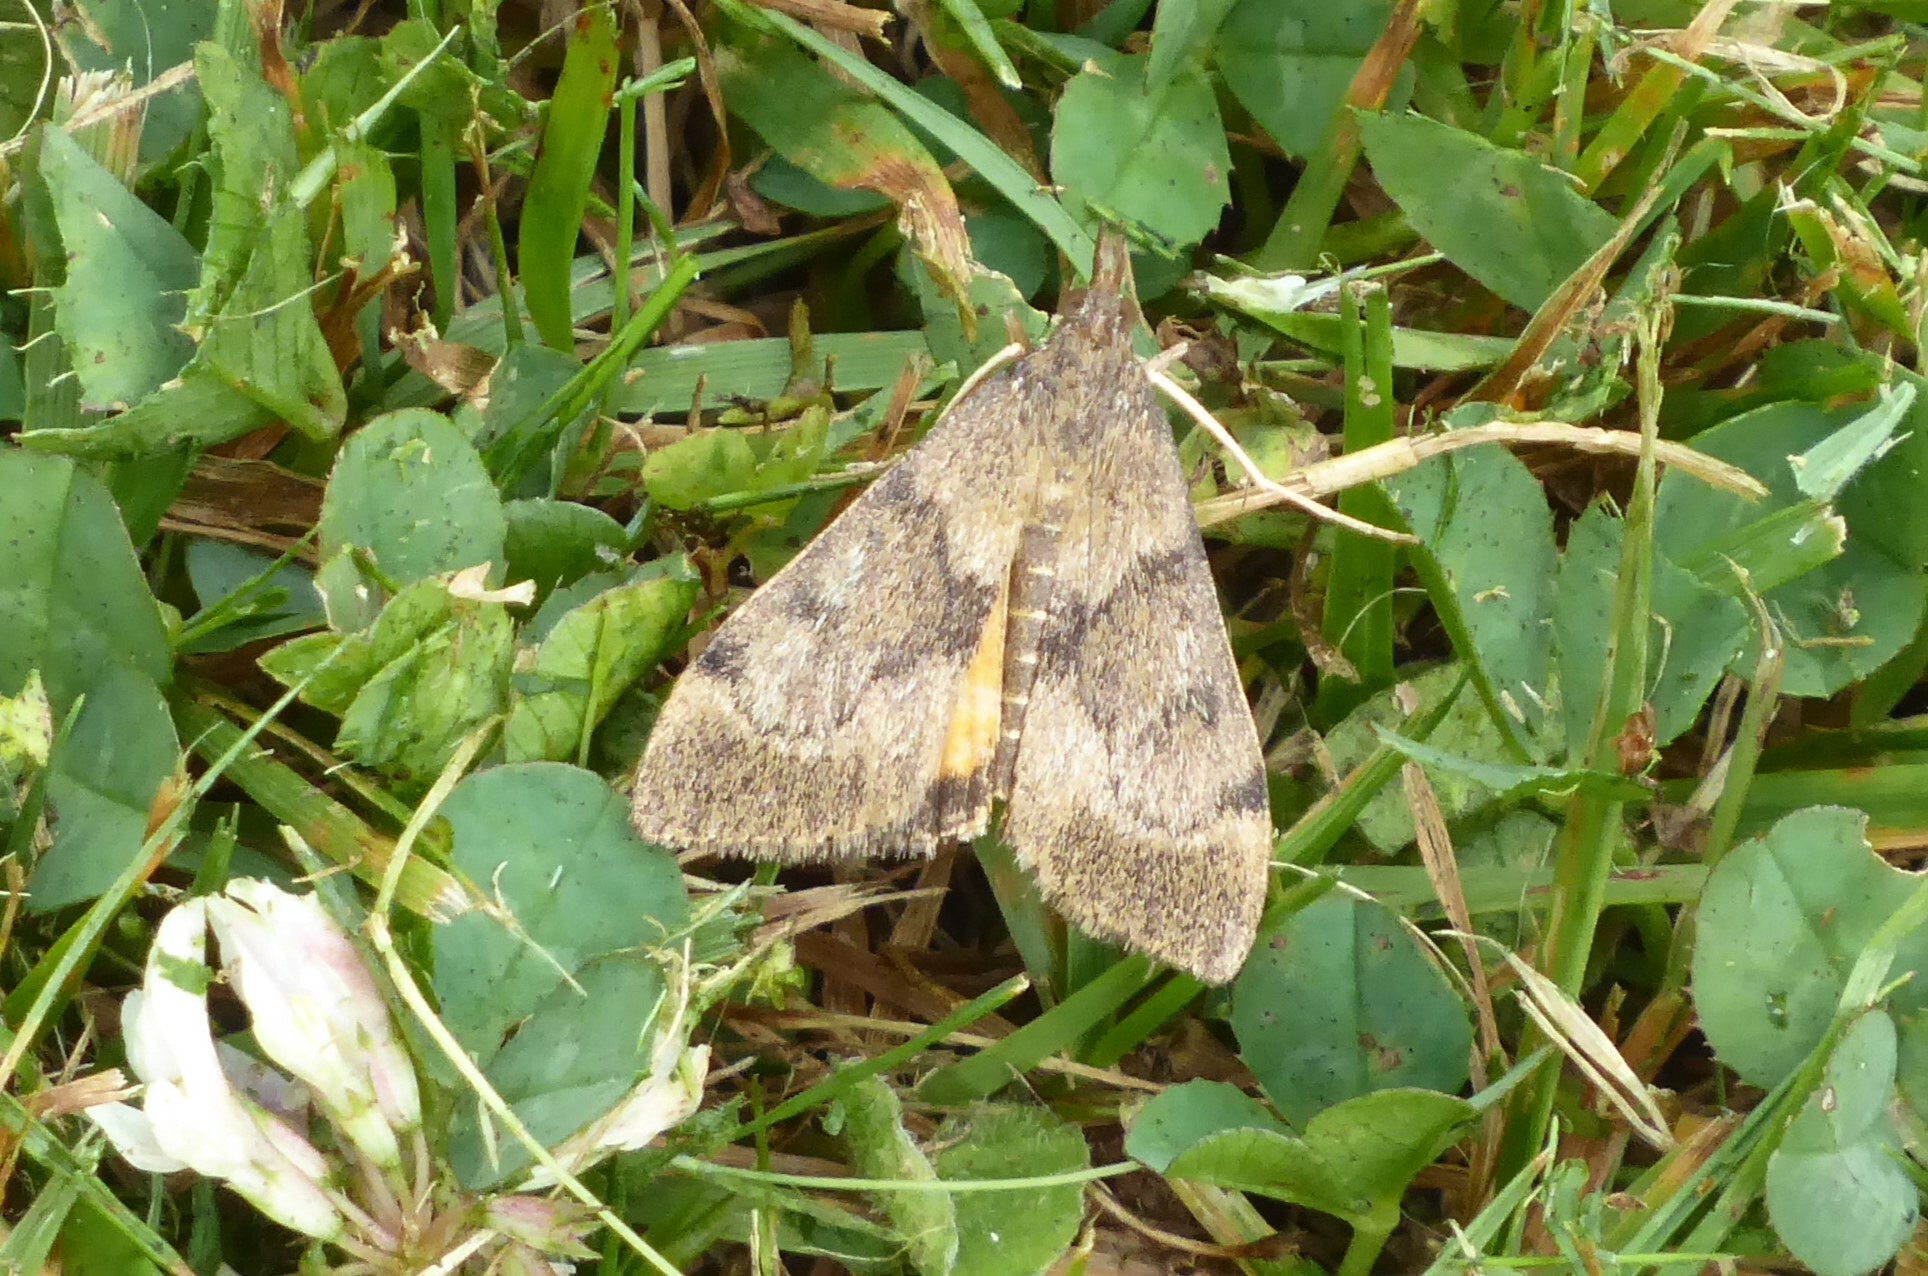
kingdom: Animalia
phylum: Arthropoda
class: Insecta
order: Lepidoptera
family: Crambidae
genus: Uresiphita
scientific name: Uresiphita
